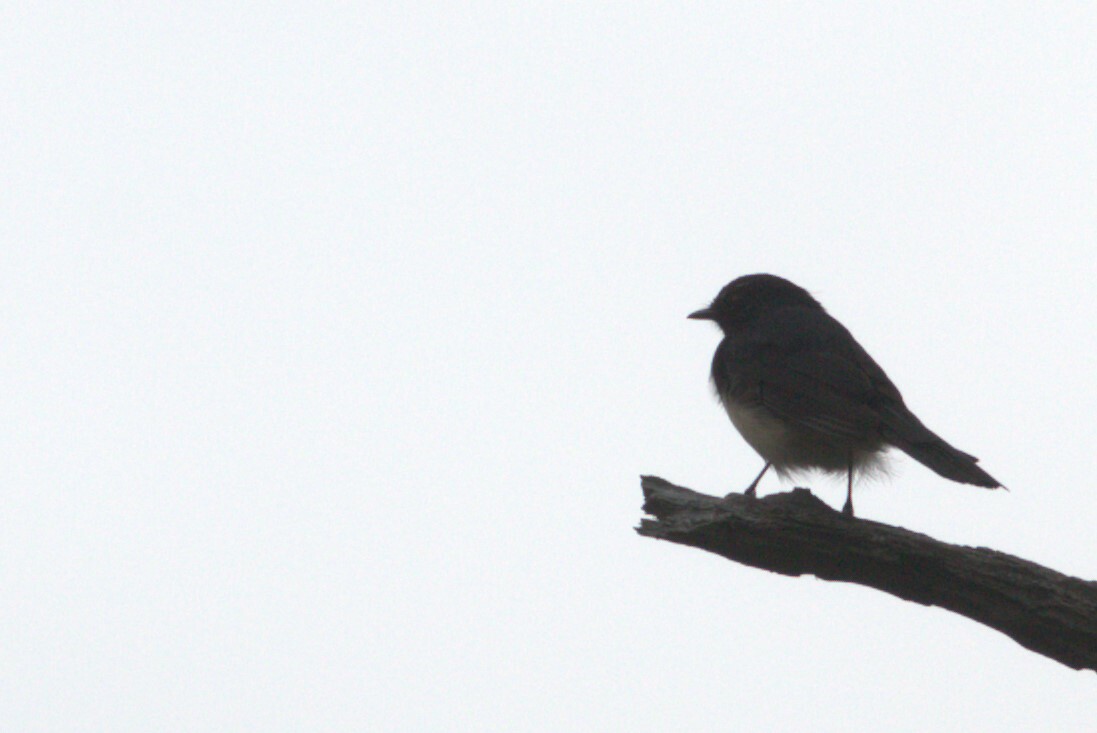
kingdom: Animalia
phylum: Chordata
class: Aves
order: Passeriformes
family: Rhipiduridae
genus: Rhipidura
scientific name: Rhipidura leucophrys
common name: Willie wagtail
